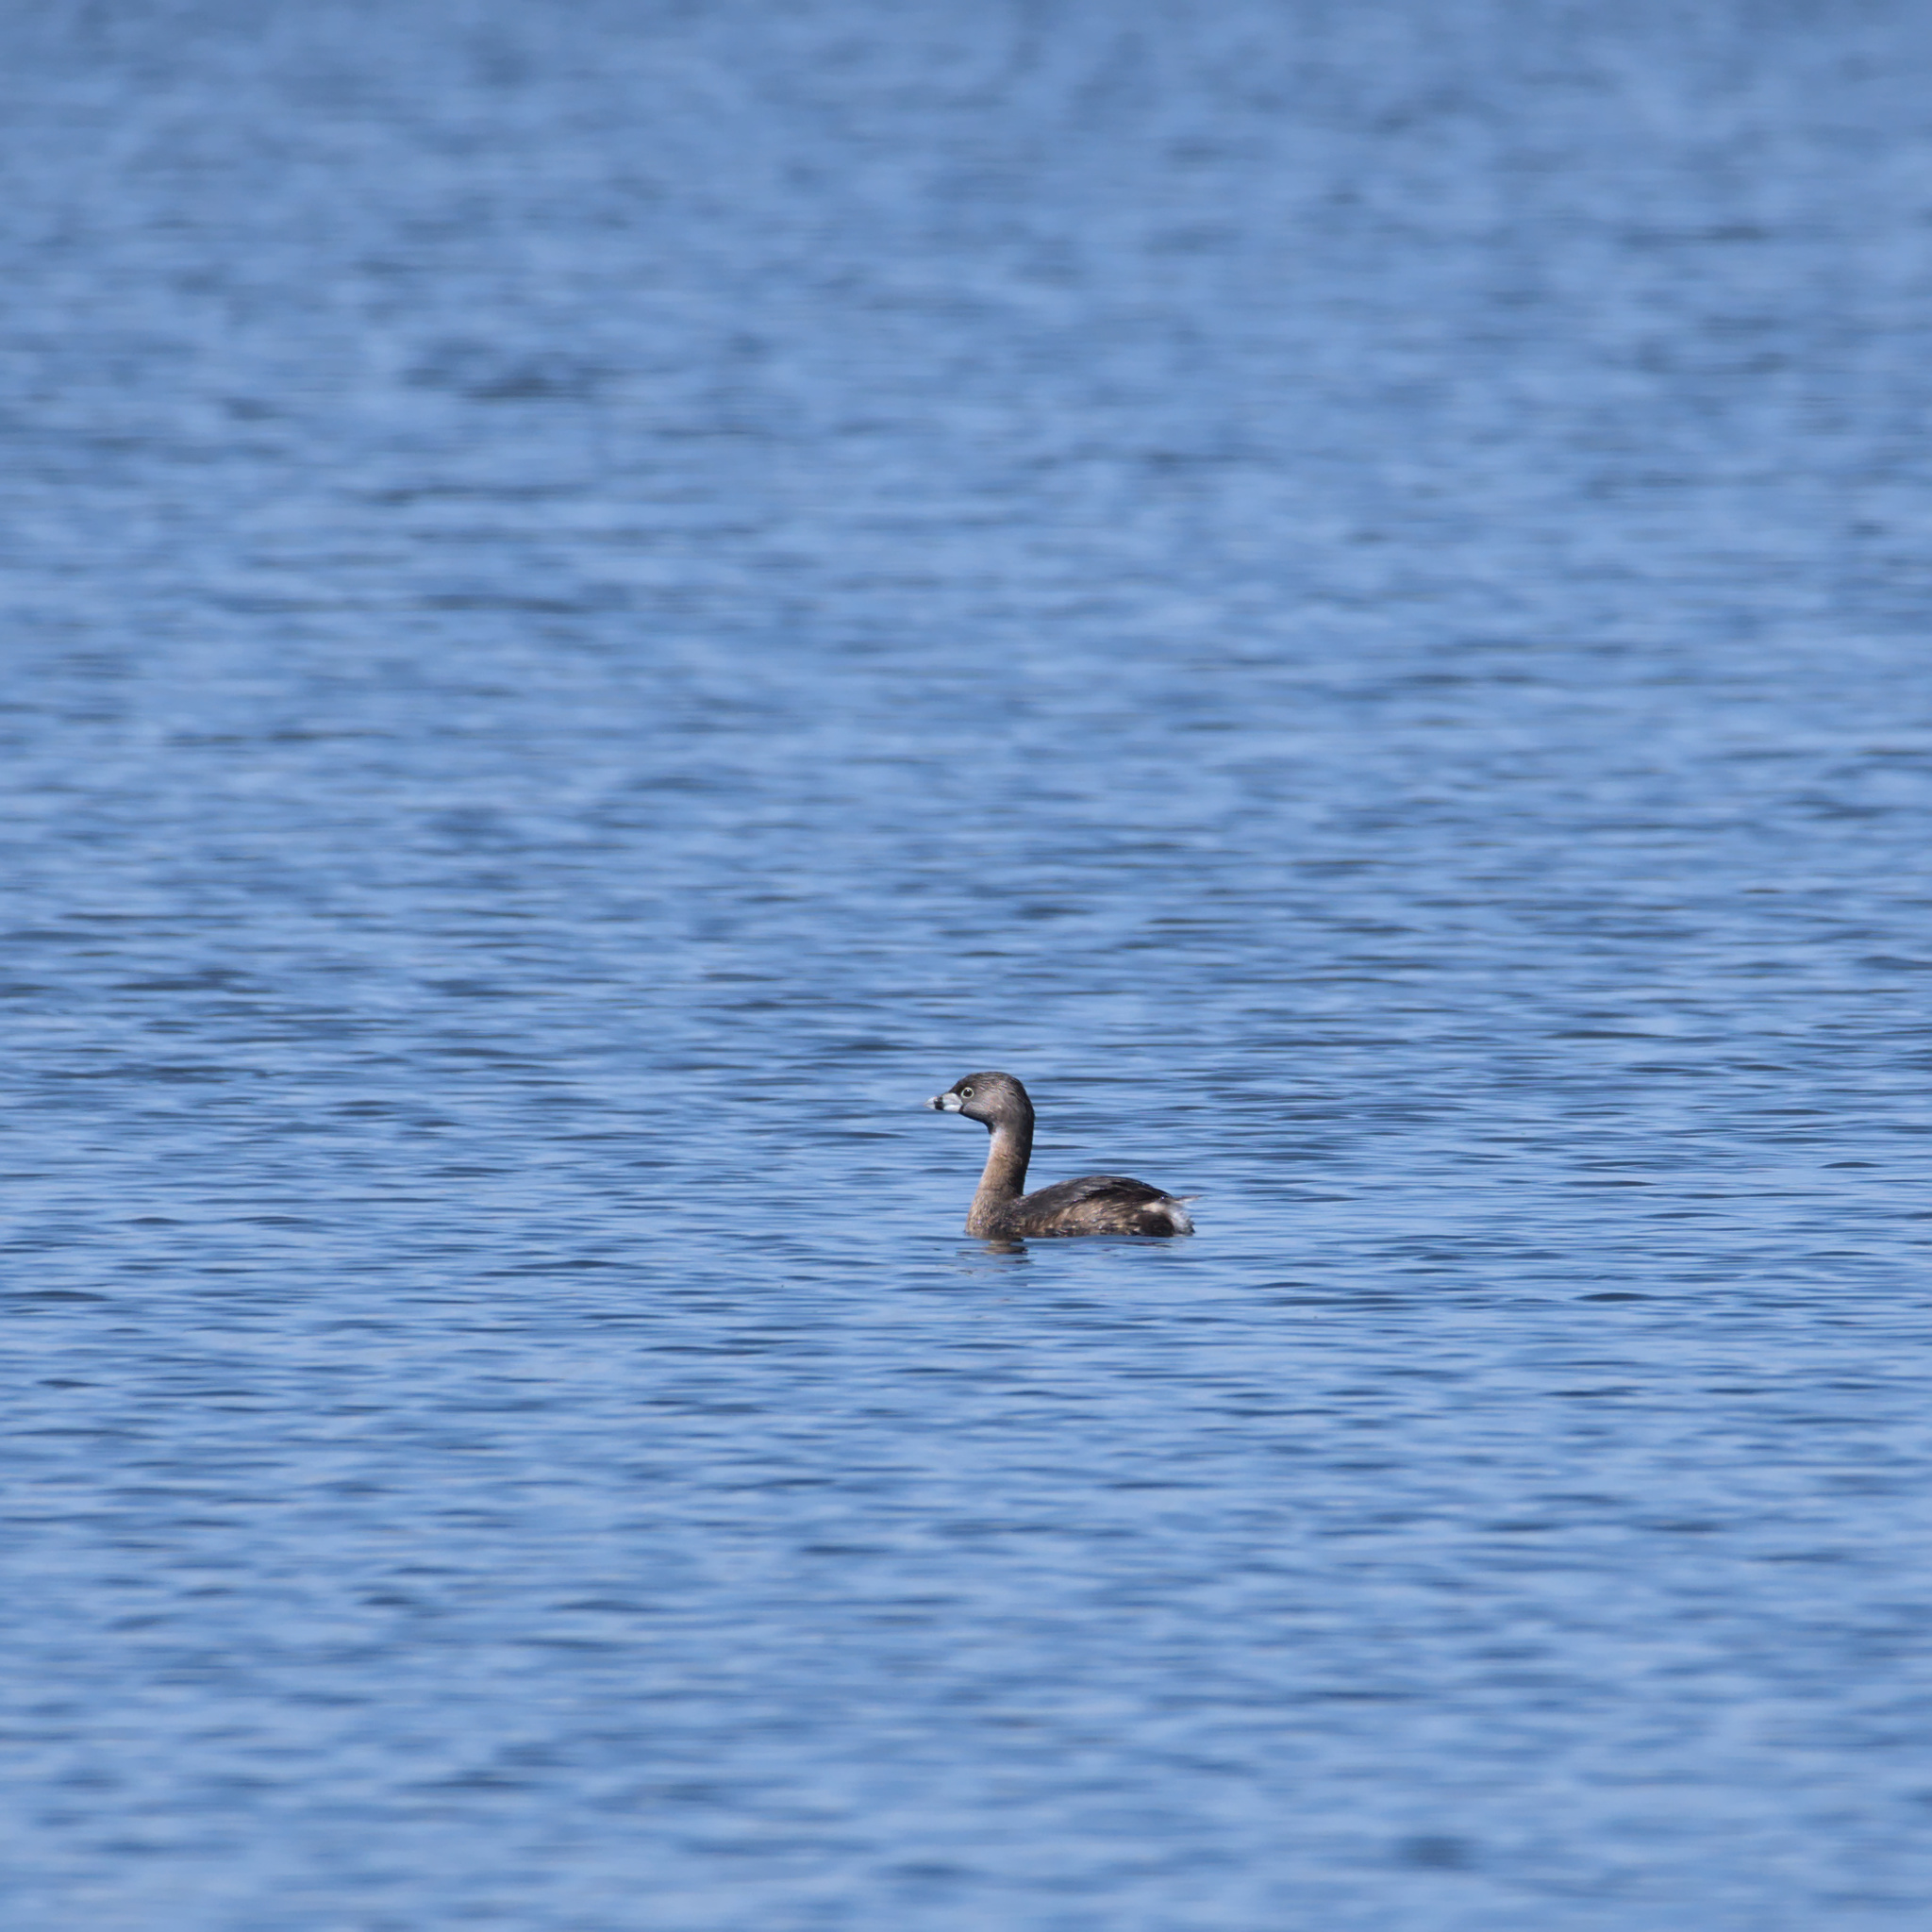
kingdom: Animalia
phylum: Chordata
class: Aves
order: Podicipediformes
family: Podicipedidae
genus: Podilymbus
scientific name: Podilymbus podiceps
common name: Pied-billed grebe
